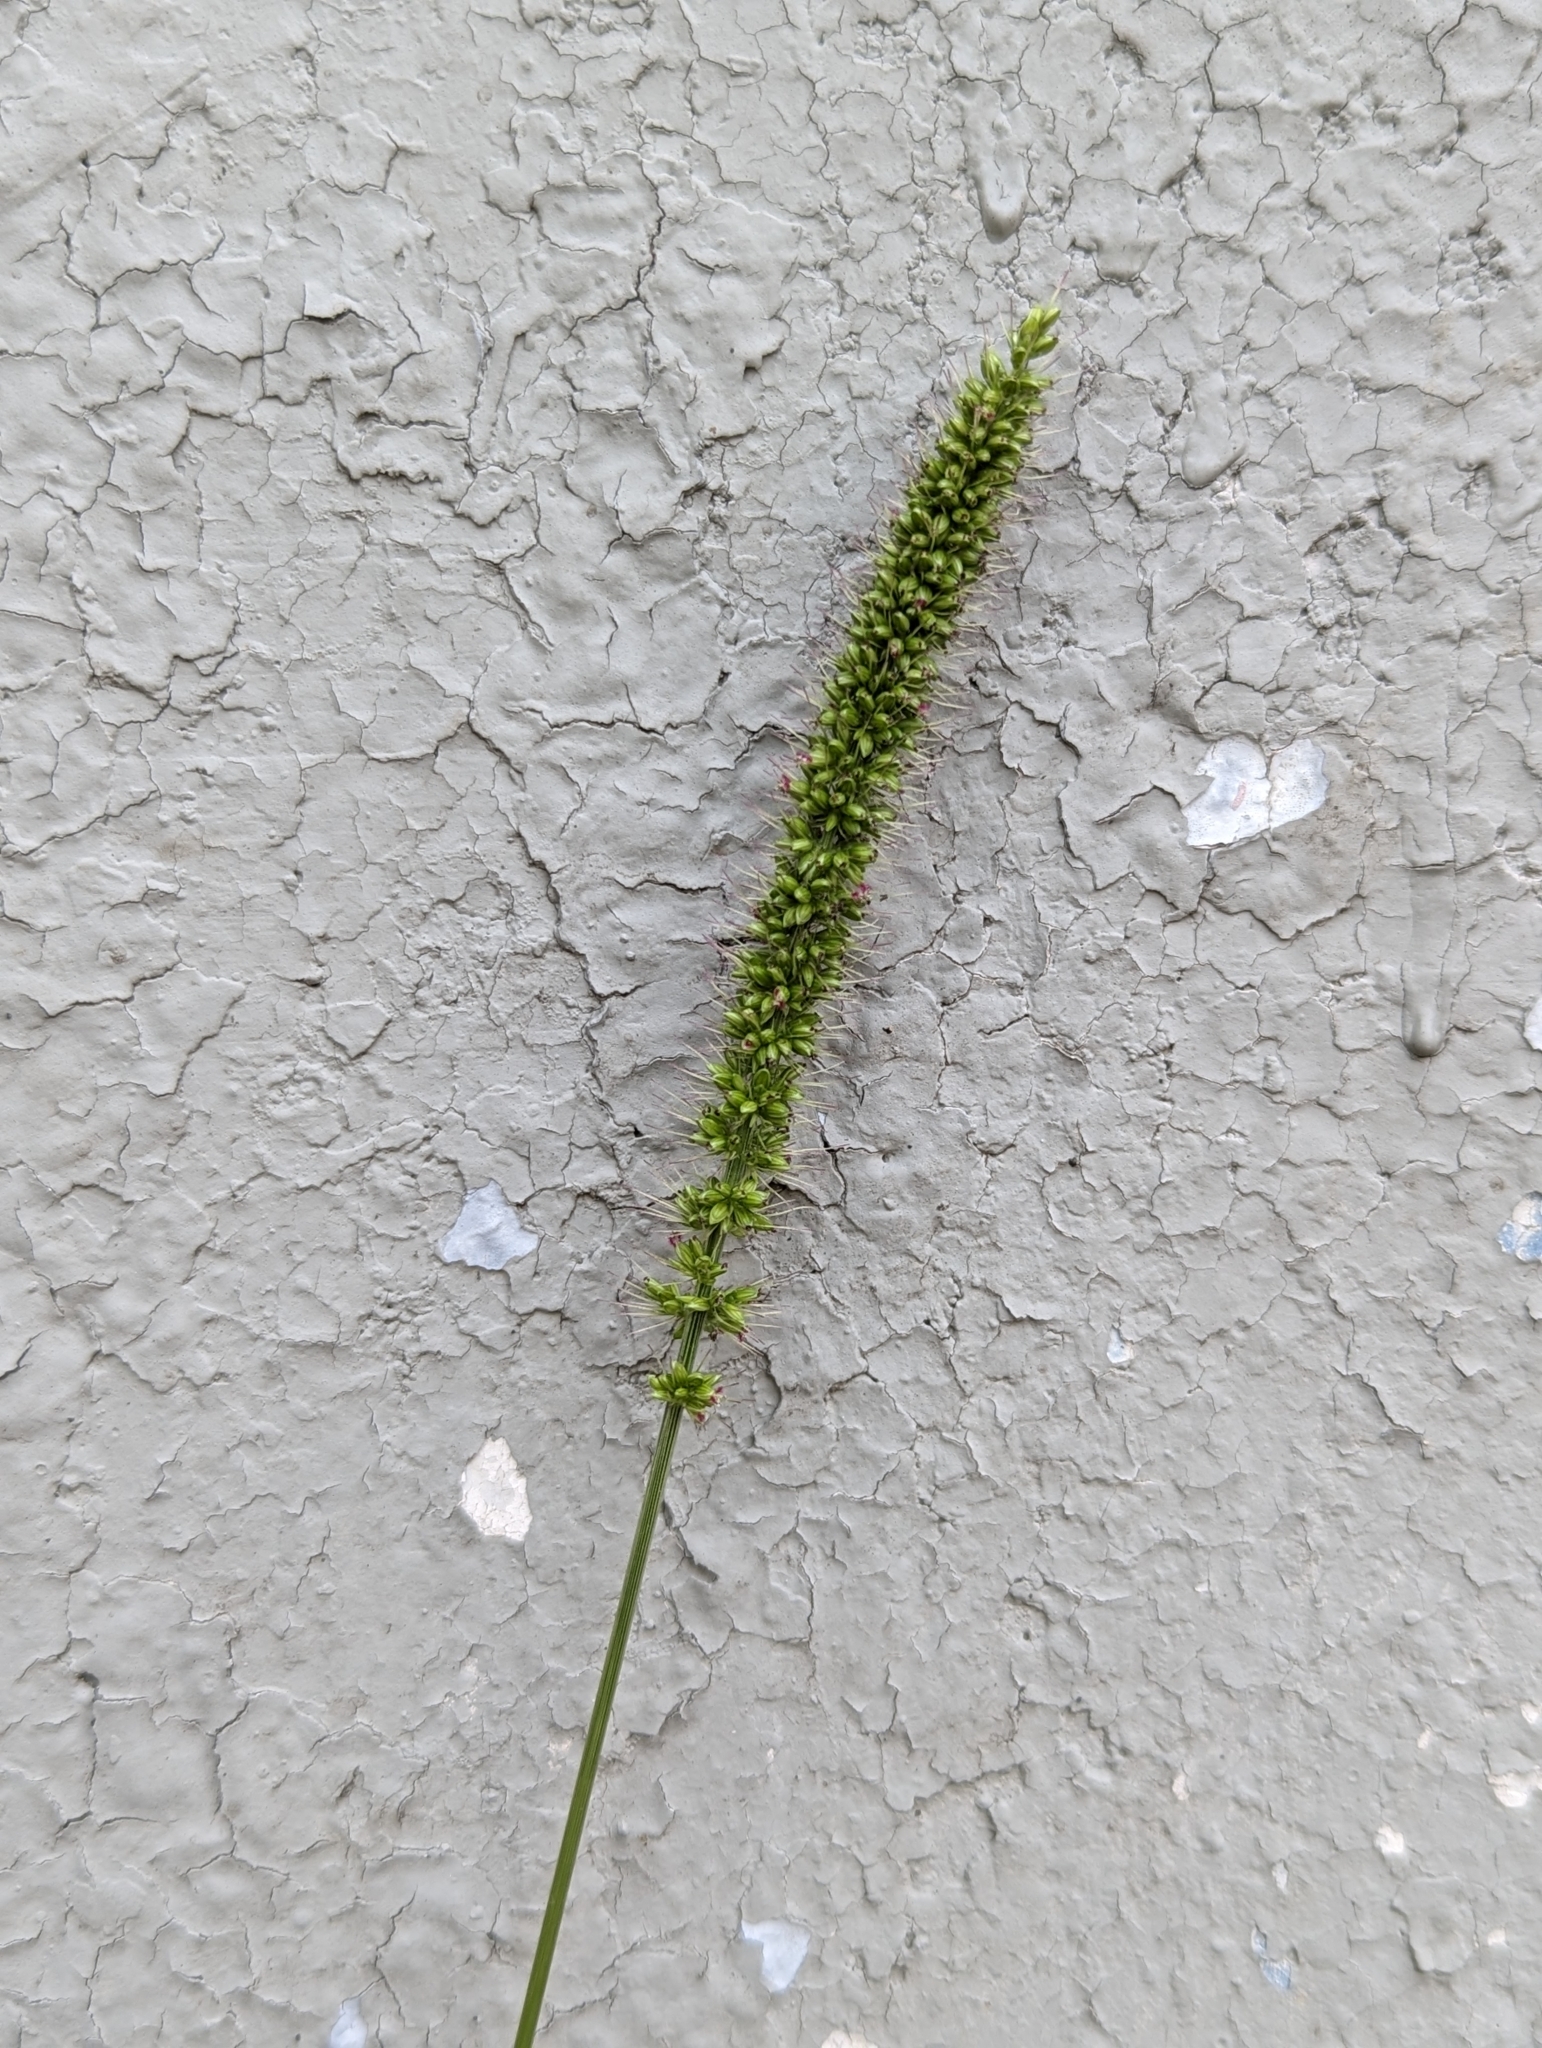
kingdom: Plantae
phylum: Tracheophyta
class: Liliopsida
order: Poales
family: Poaceae
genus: Setaria
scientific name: Setaria verticillata
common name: Hooked bristlegrass
